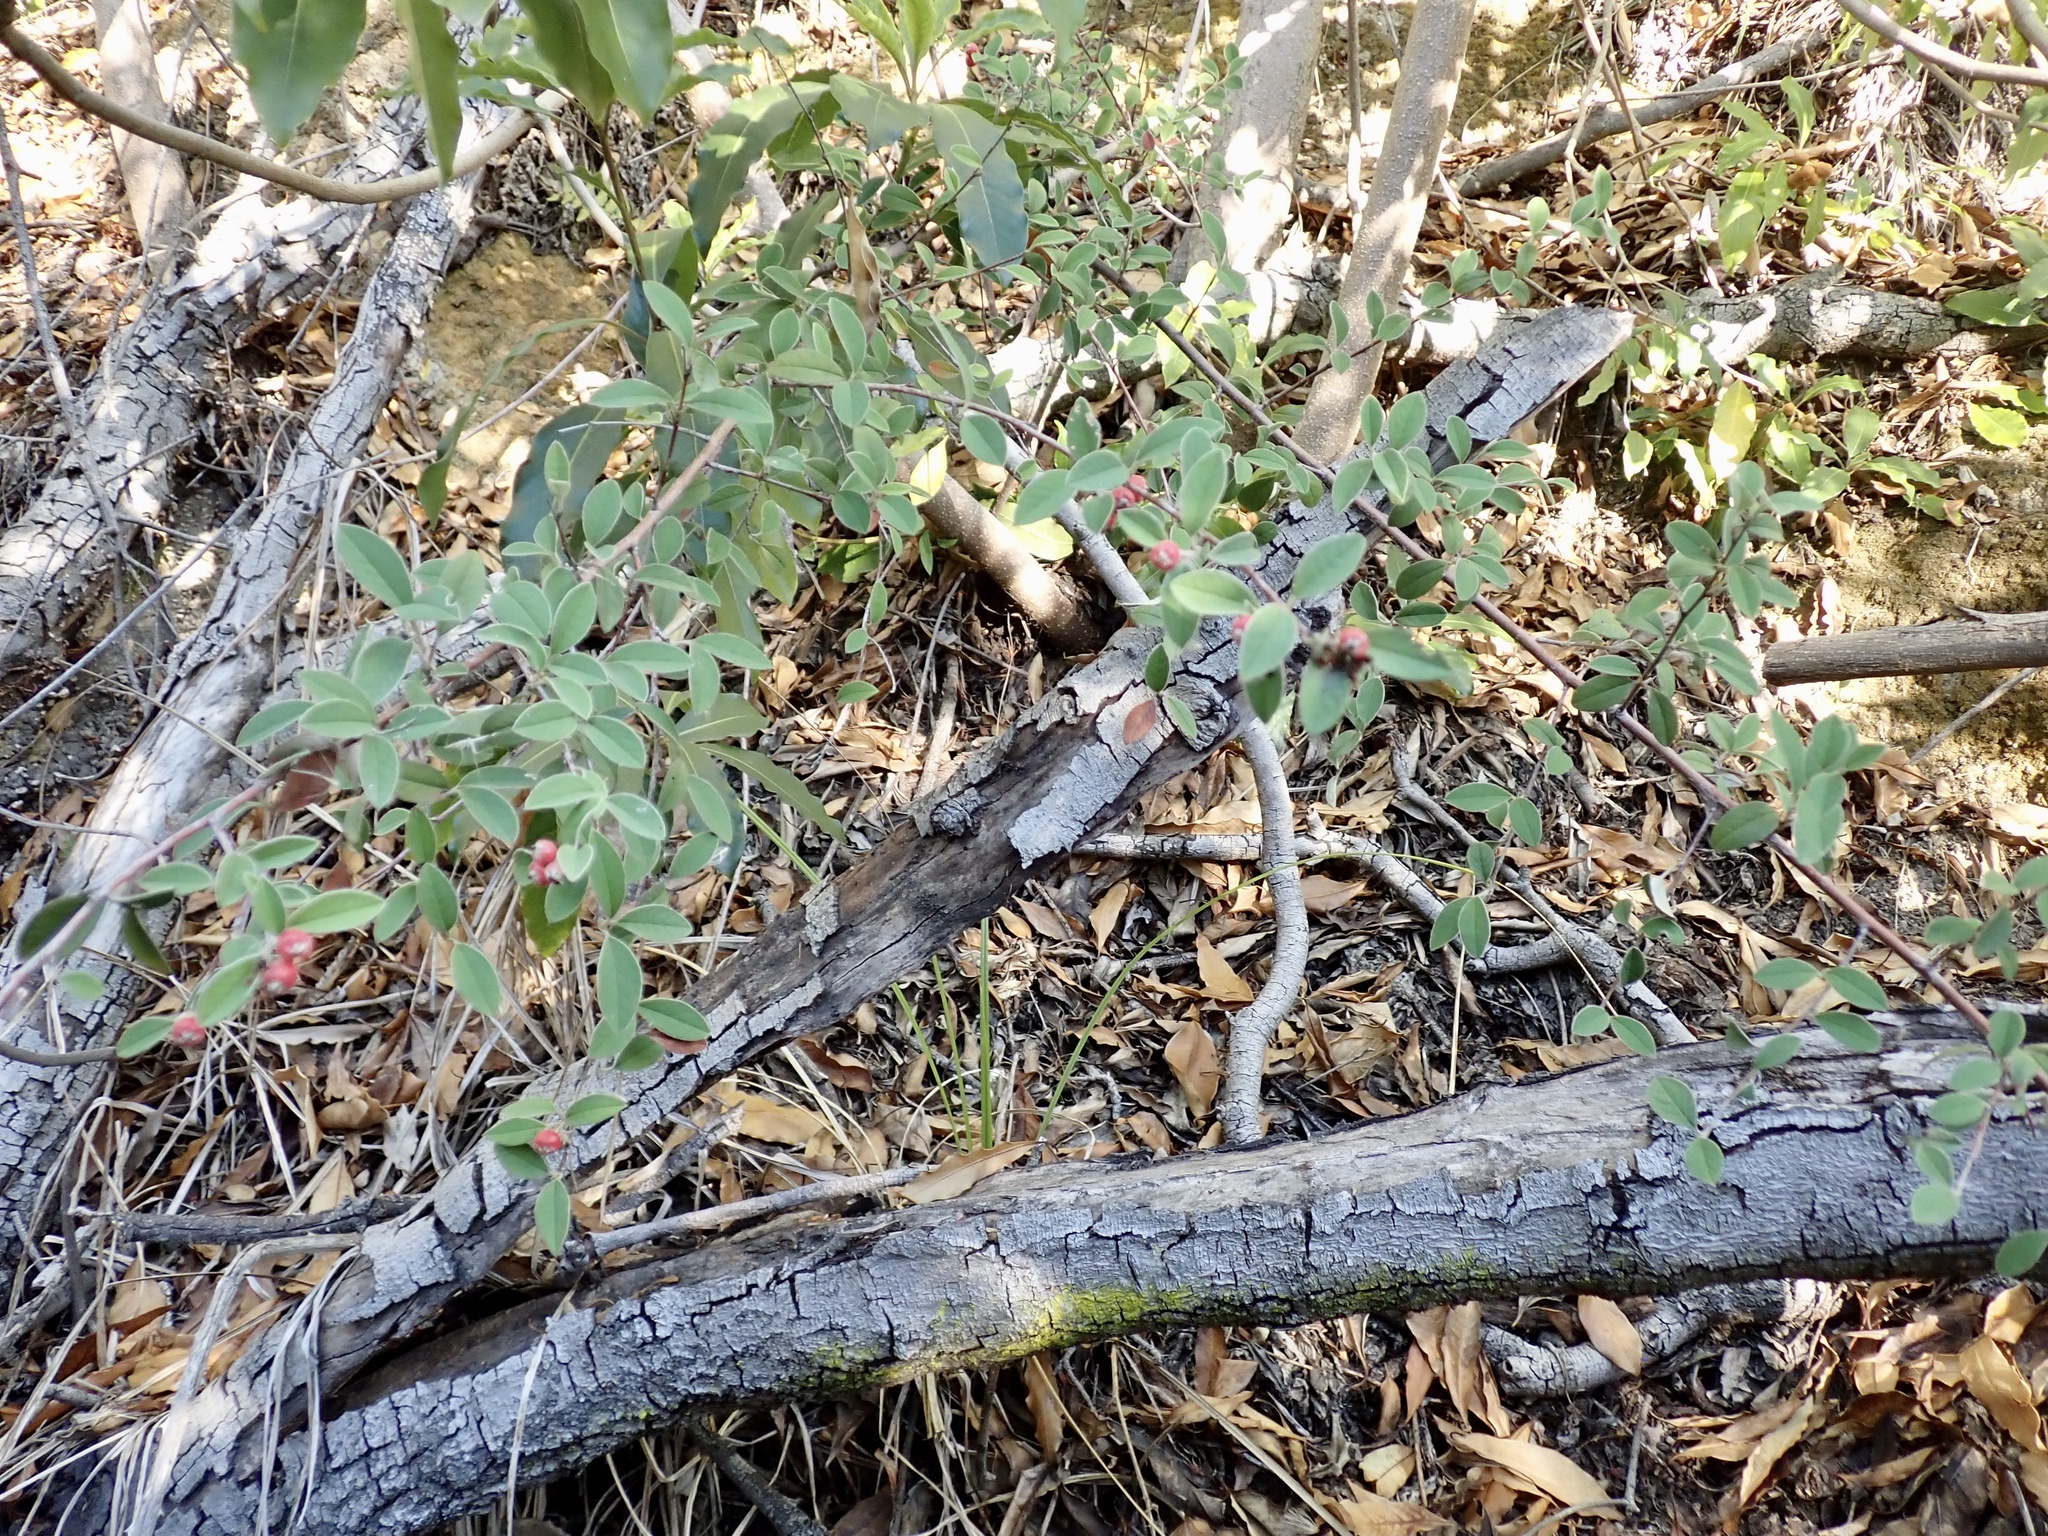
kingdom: Plantae
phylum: Tracheophyta
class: Magnoliopsida
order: Rosales
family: Rosaceae
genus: Cotoneaster
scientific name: Cotoneaster pannosus
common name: Silverleaf cotoneaster
